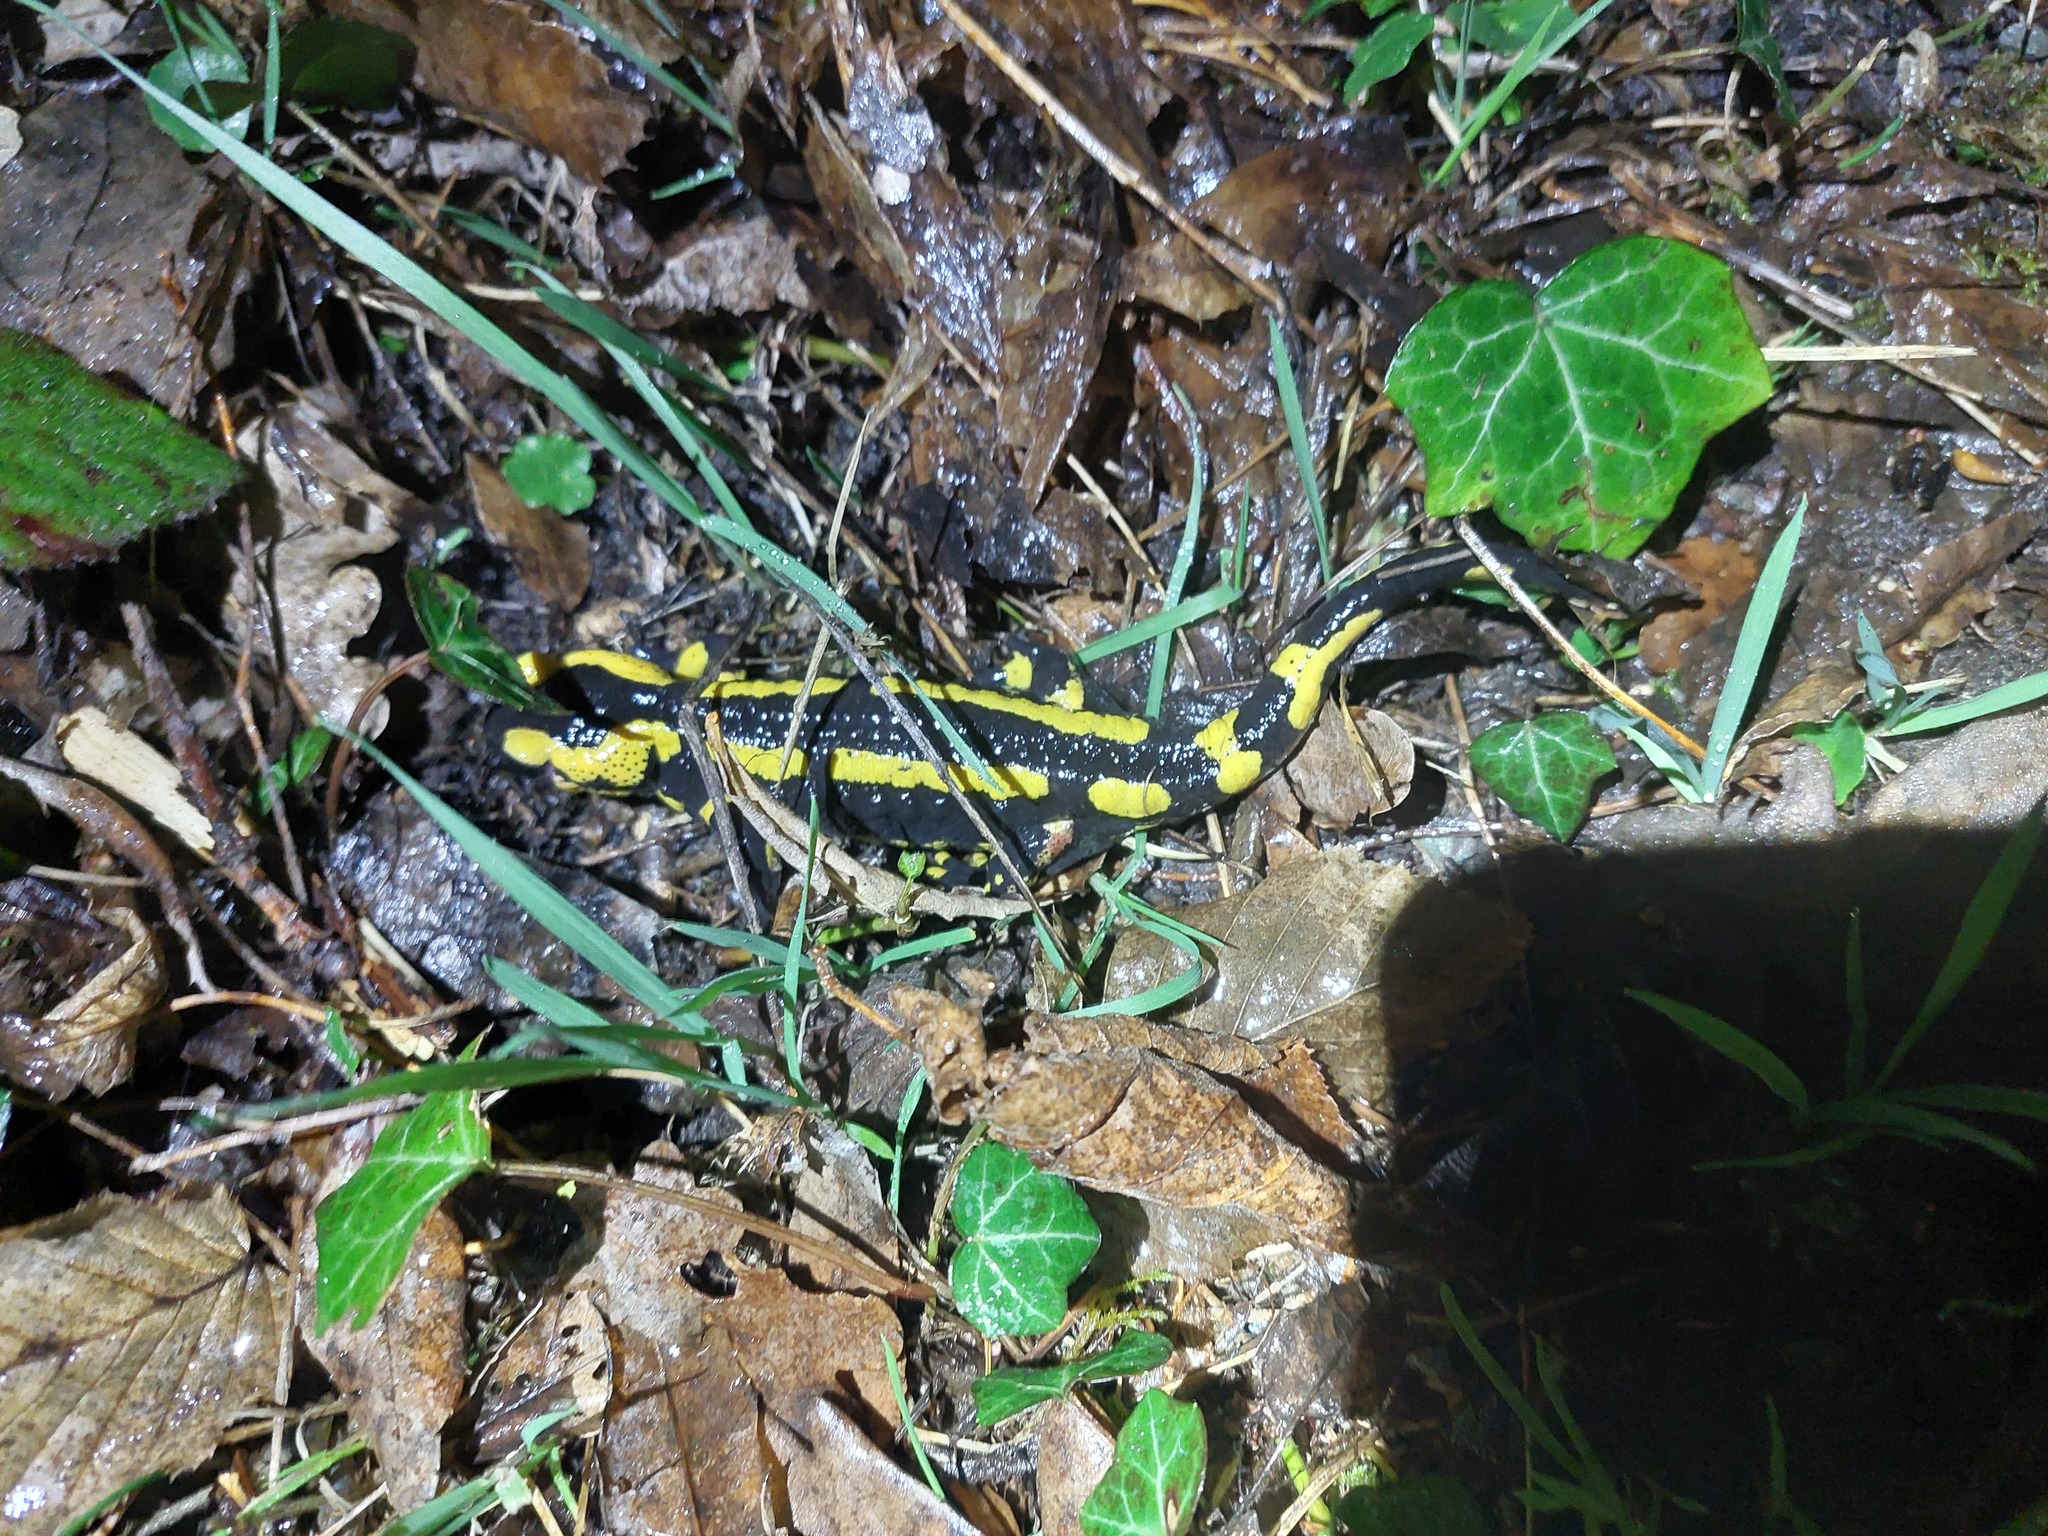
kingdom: Animalia
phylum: Chordata
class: Amphibia
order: Caudata
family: Salamandridae
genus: Salamandra
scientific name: Salamandra salamandra
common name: Fire salamander
